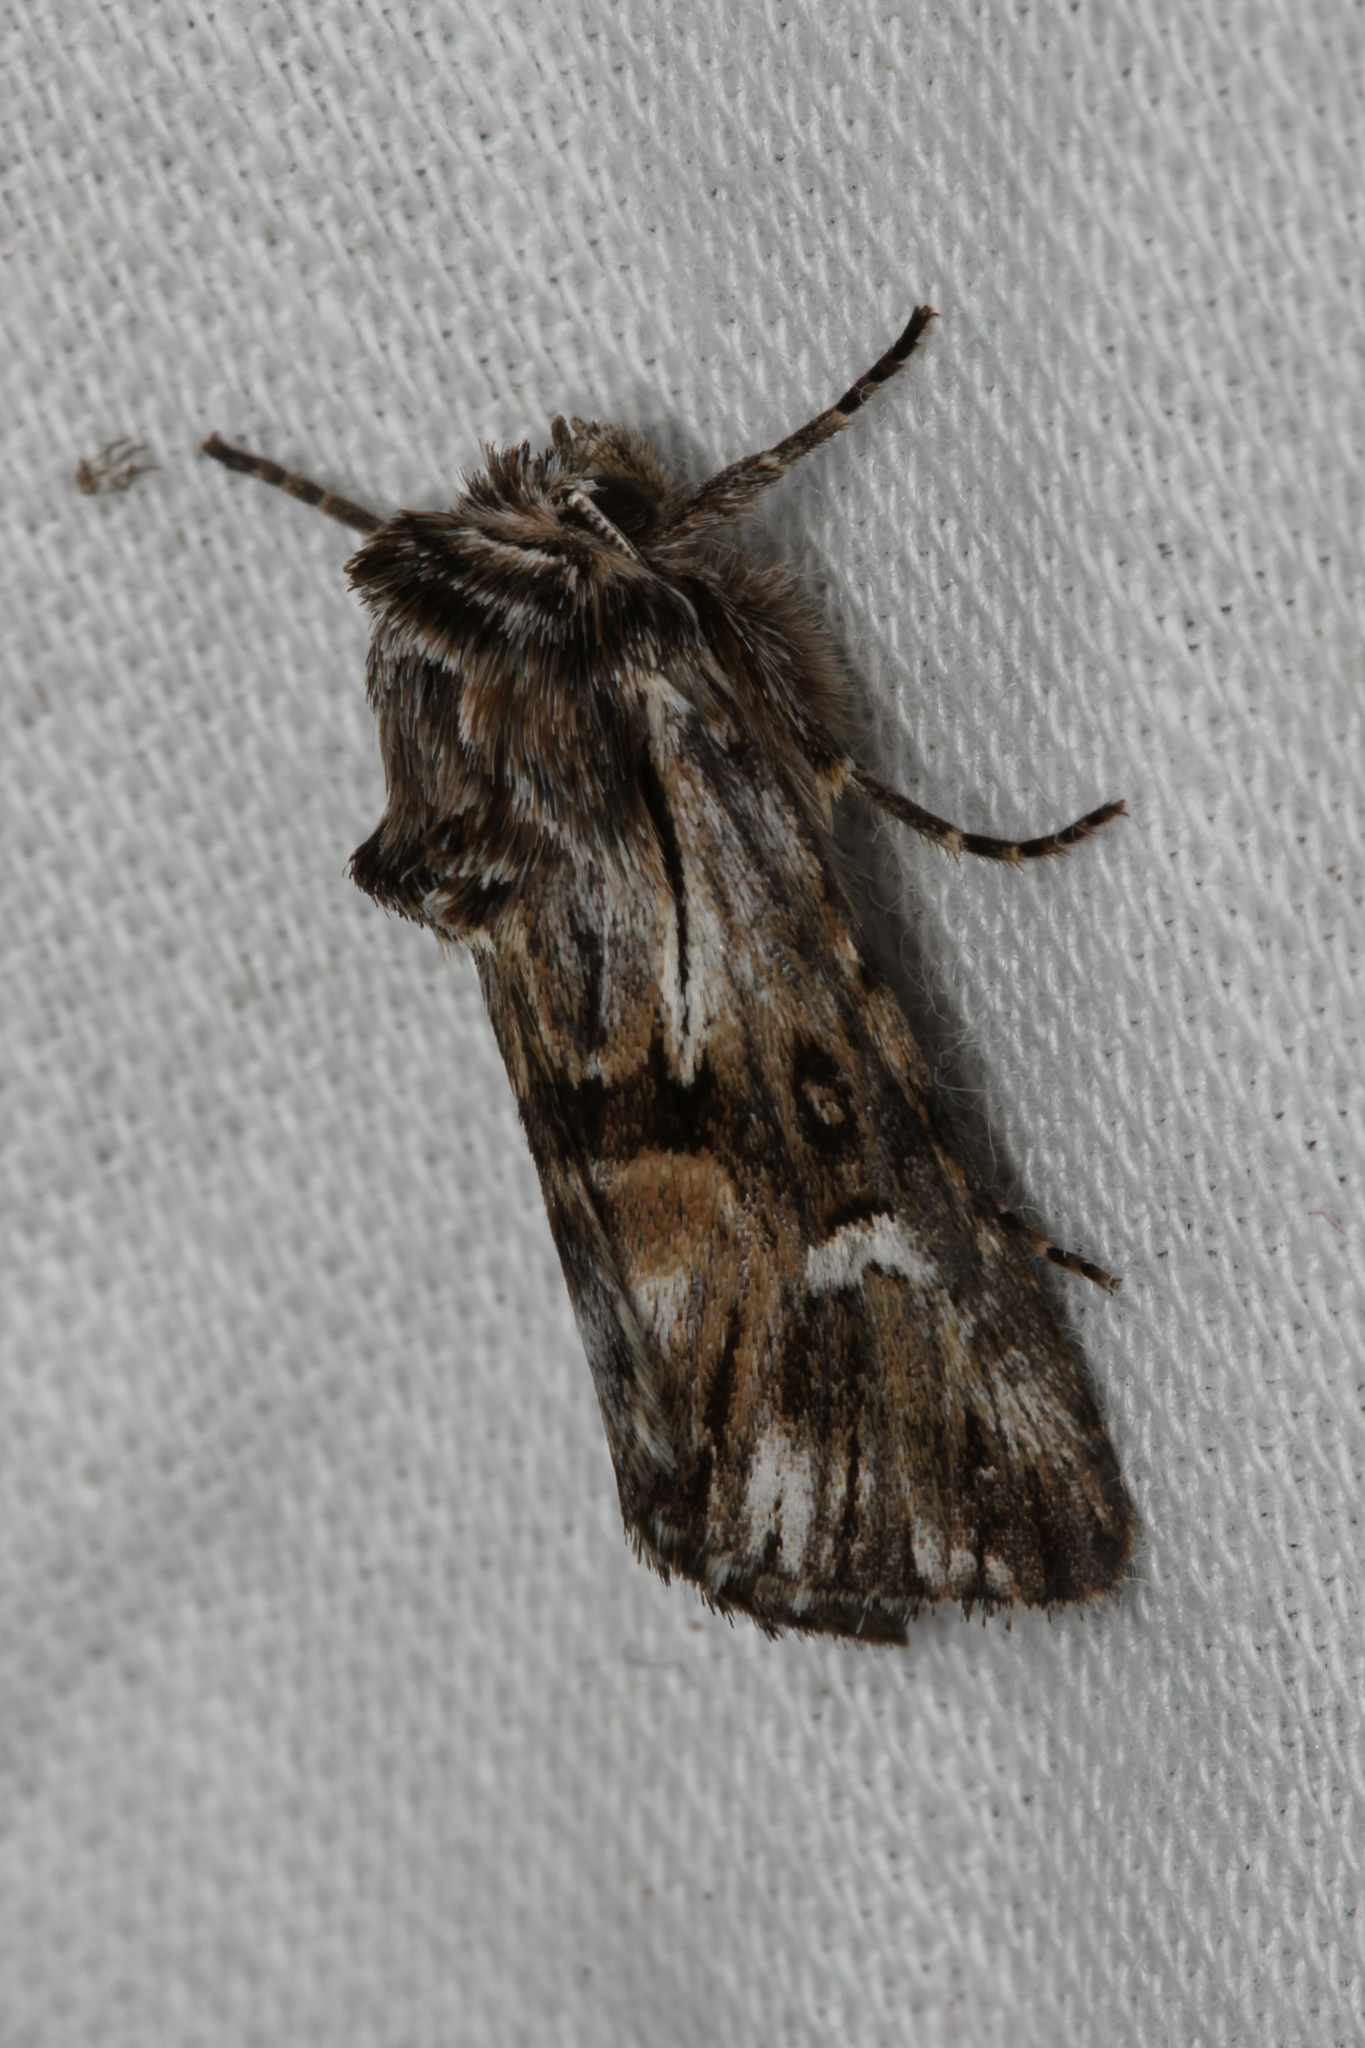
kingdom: Animalia
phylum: Arthropoda
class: Insecta
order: Lepidoptera
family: Noctuidae
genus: Calophasia
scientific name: Calophasia lunula
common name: Toadflax brocade
